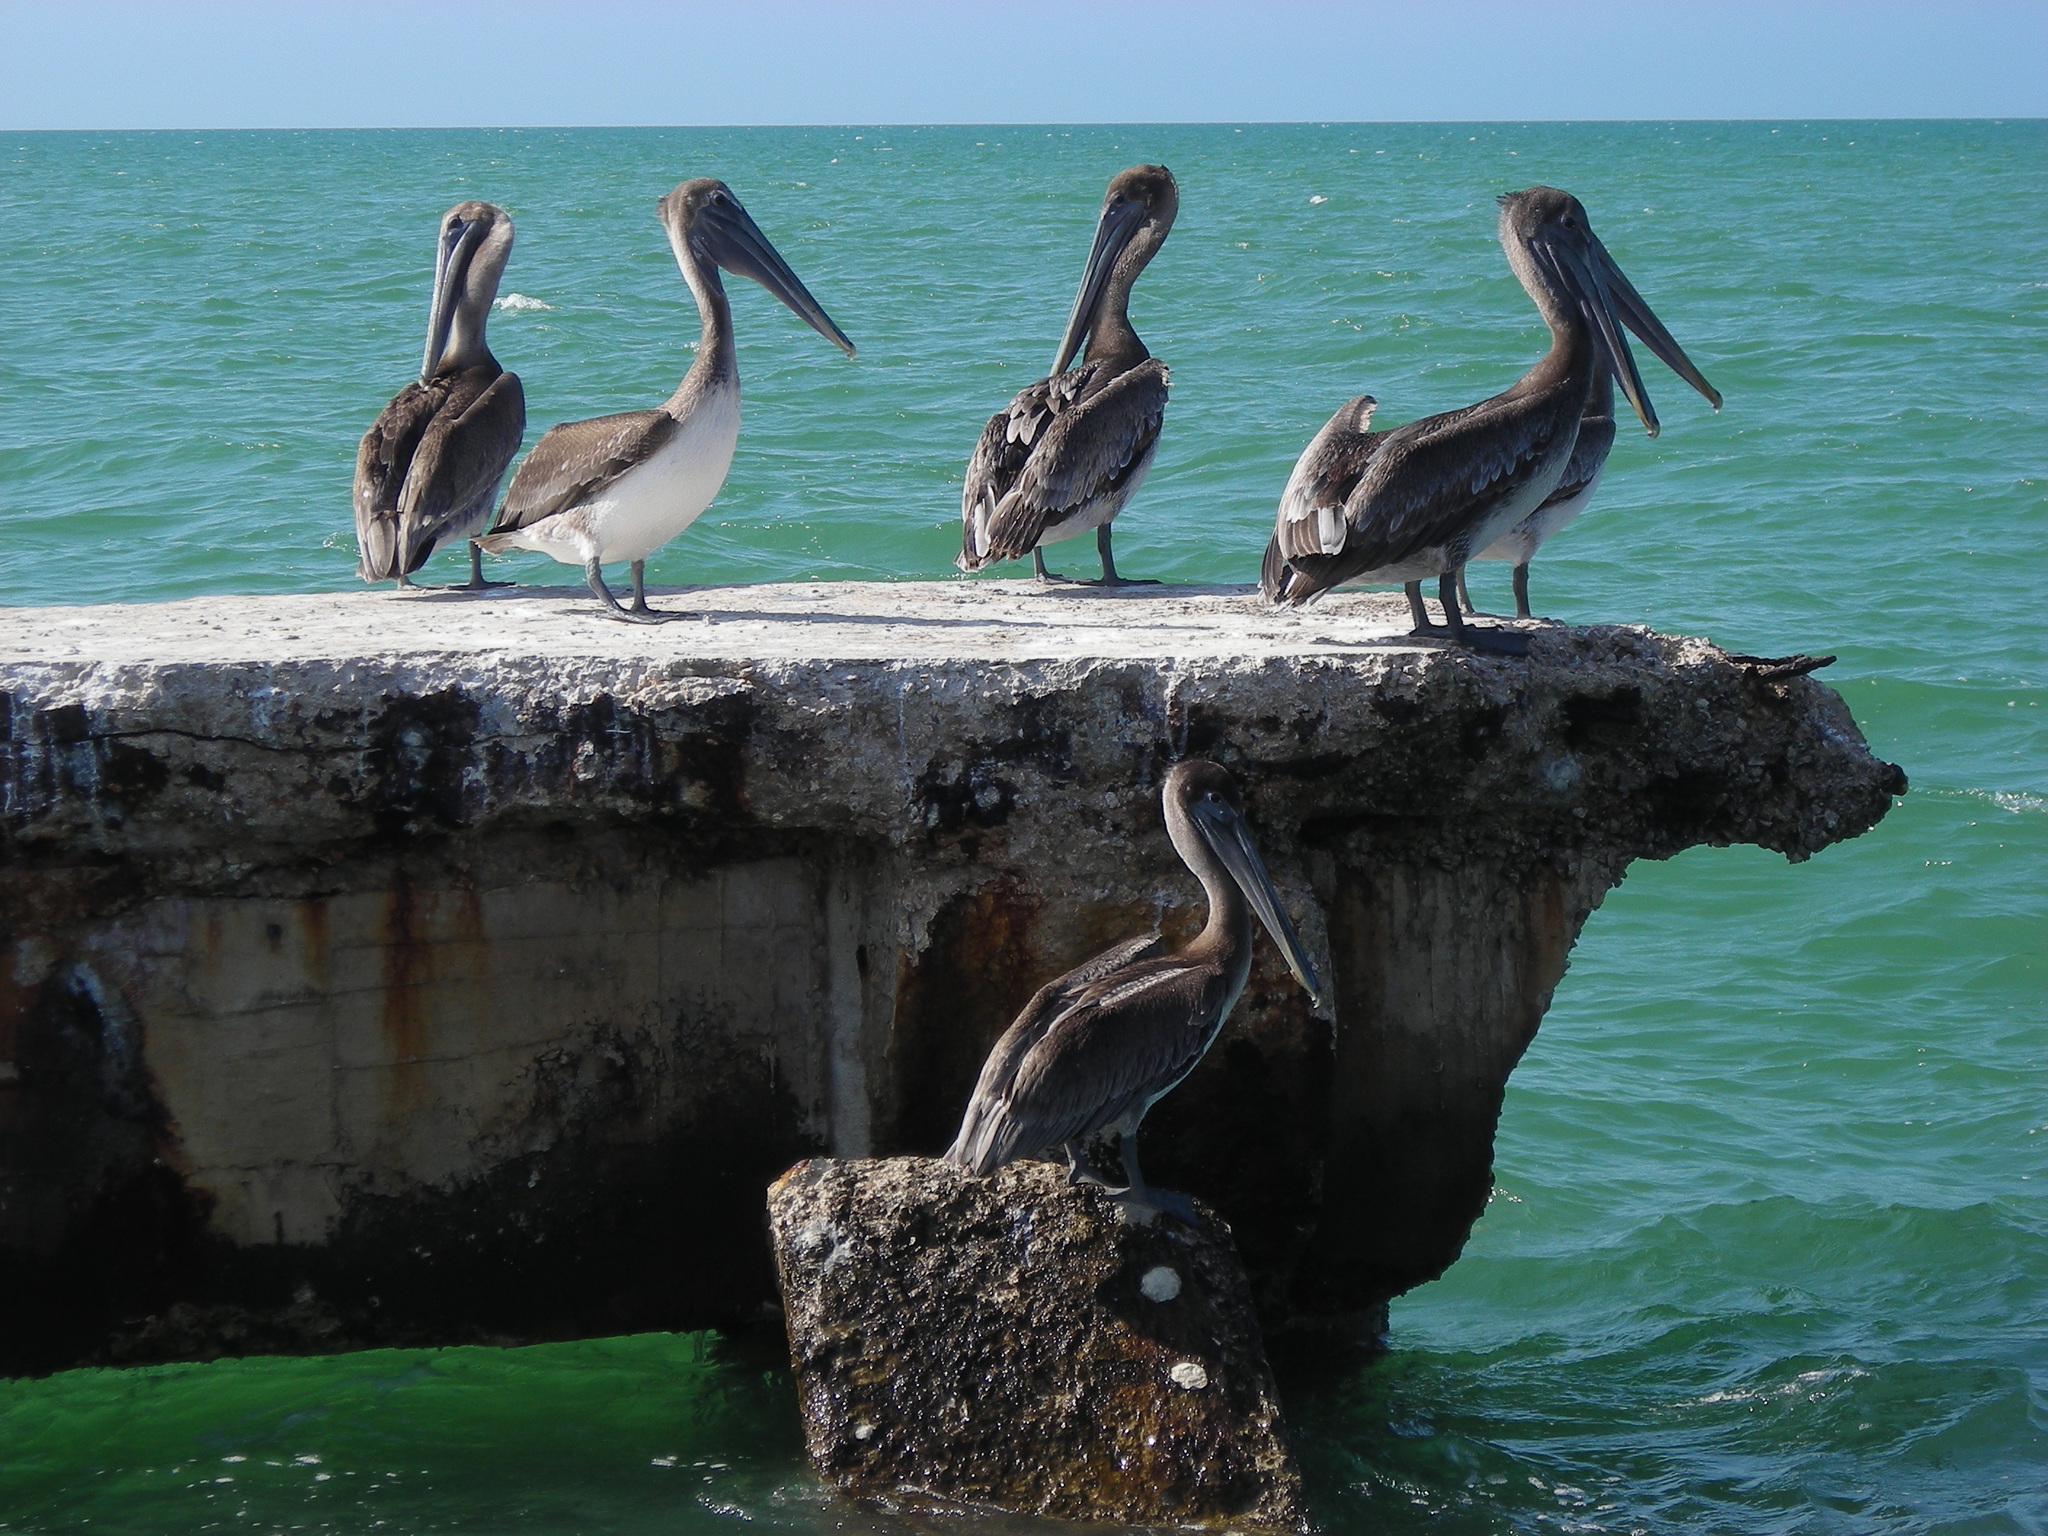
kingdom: Animalia
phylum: Chordata
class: Aves
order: Pelecaniformes
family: Pelecanidae
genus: Pelecanus
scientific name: Pelecanus occidentalis
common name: Brown pelican
